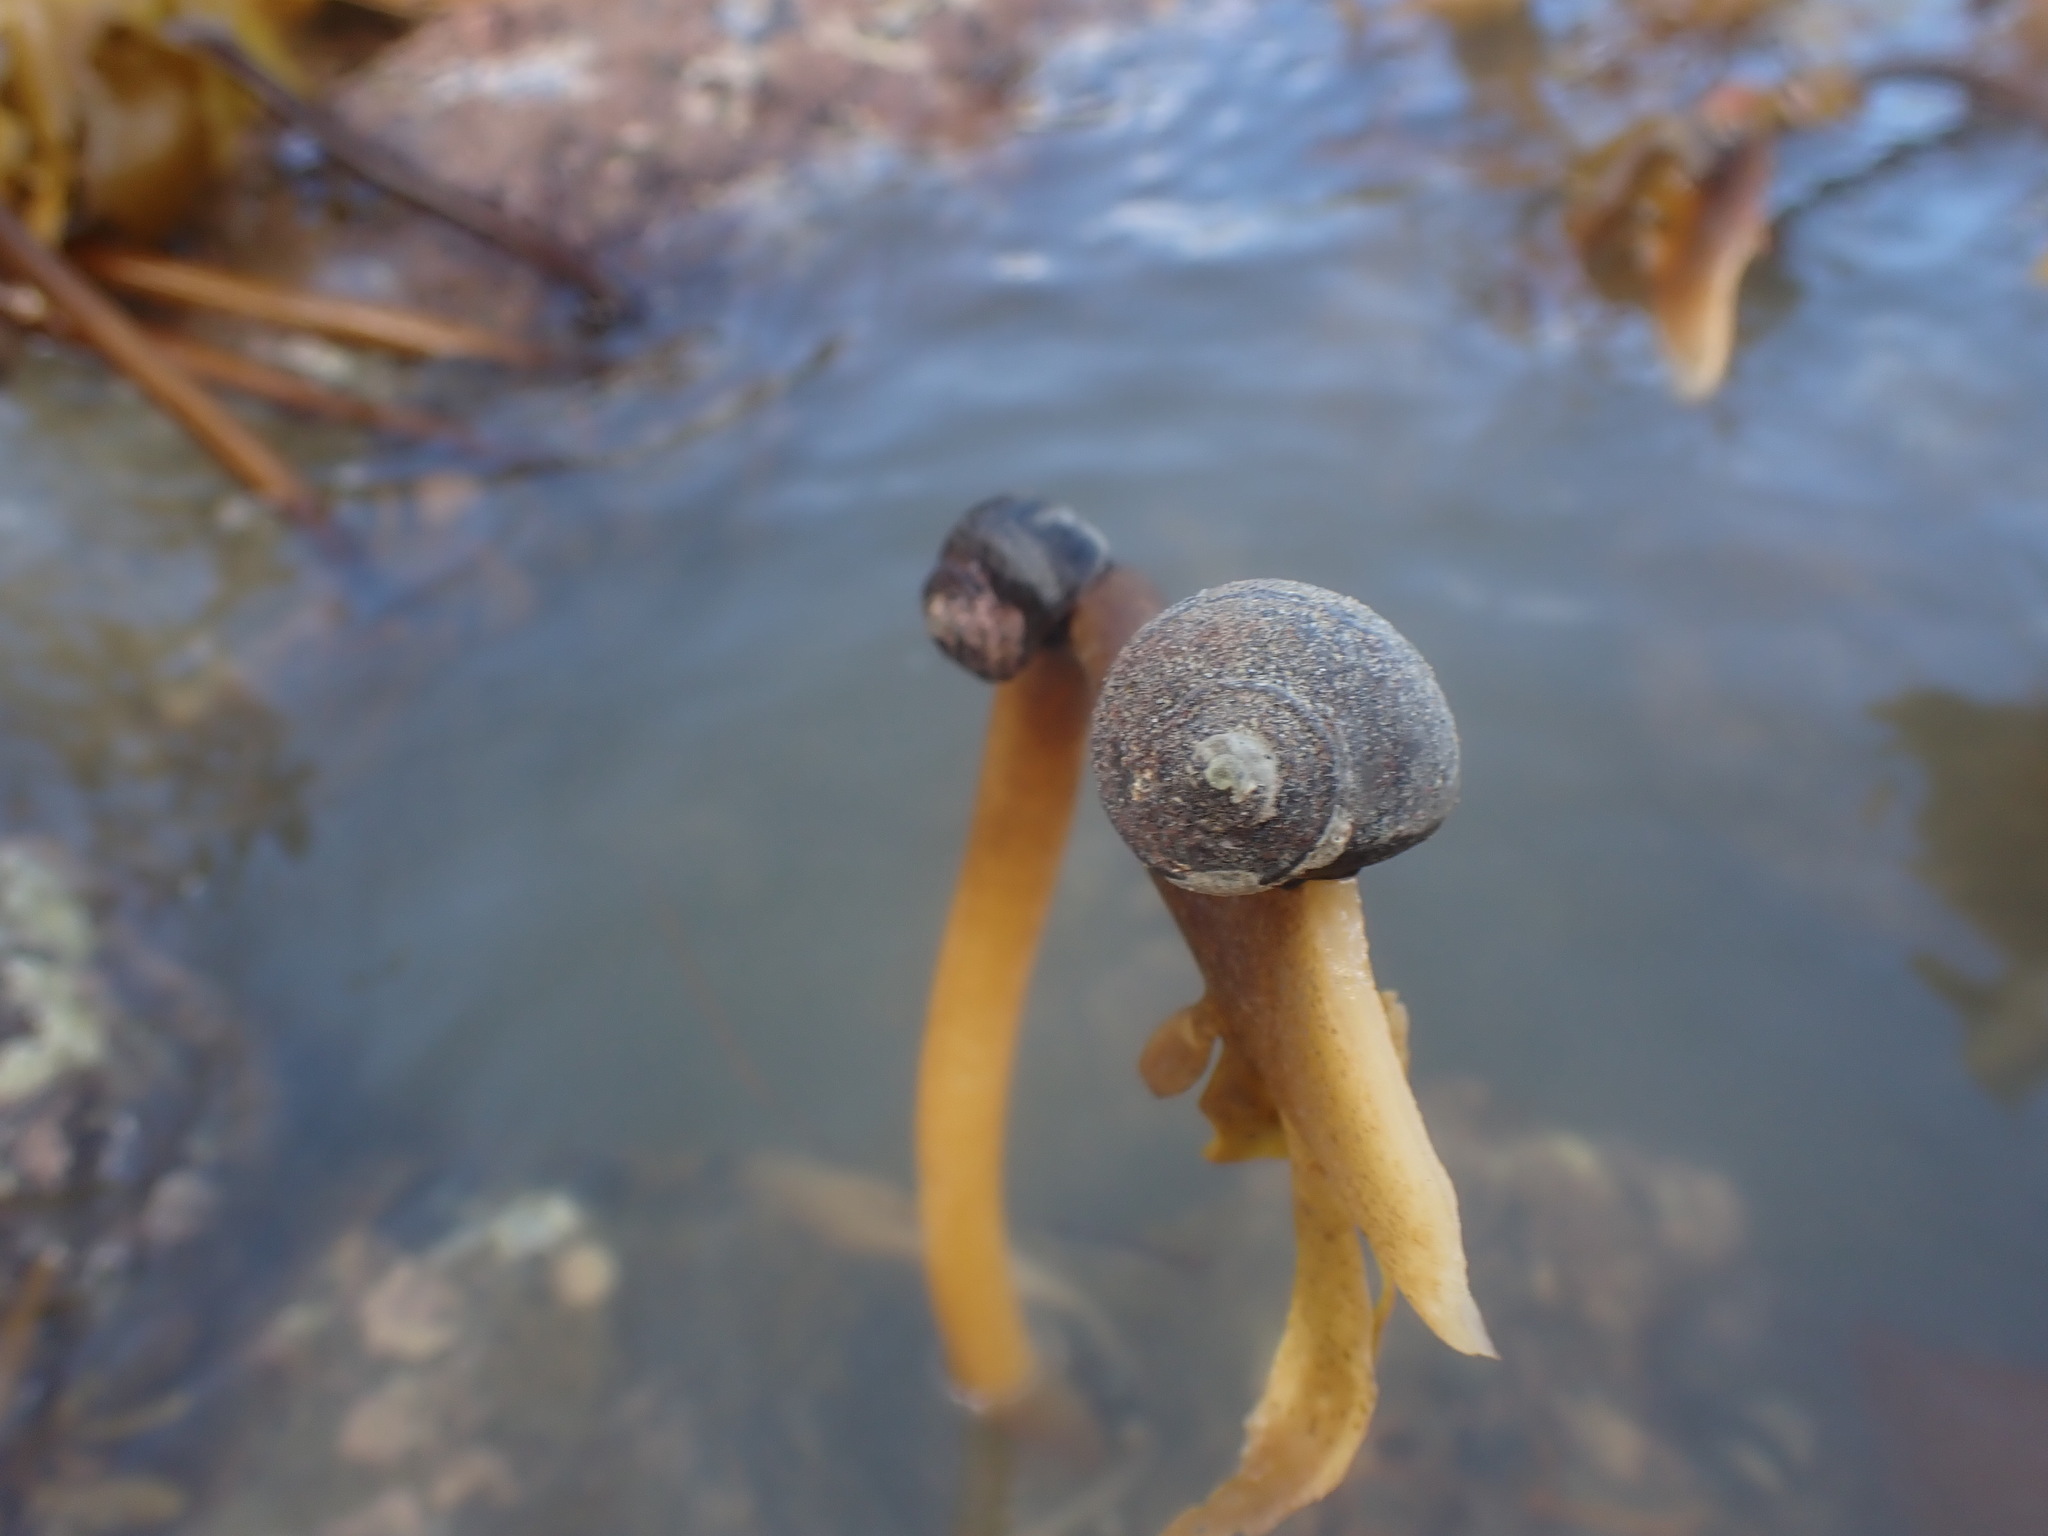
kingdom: Animalia
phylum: Mollusca
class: Gastropoda
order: Trochida
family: Turbinidae
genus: Lunella
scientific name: Lunella smaragda
